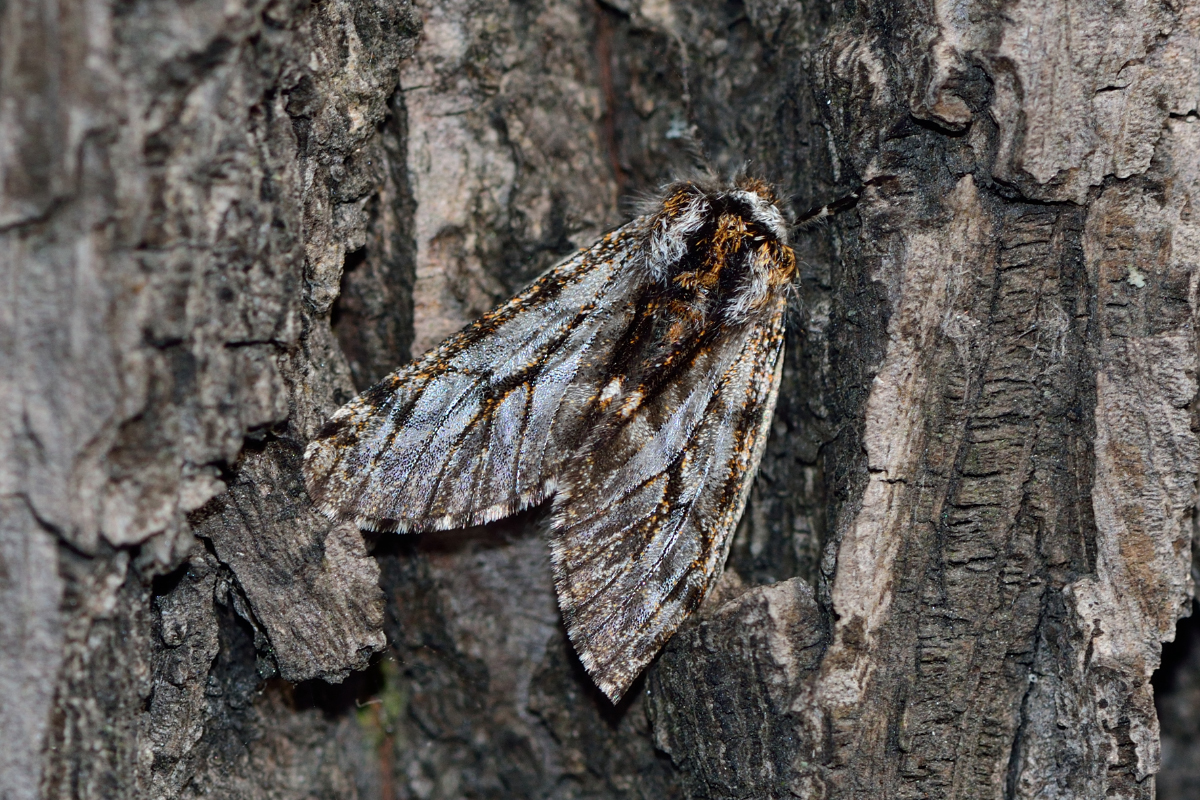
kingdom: Animalia
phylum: Arthropoda
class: Insecta
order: Lepidoptera
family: Geometridae
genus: Lycia
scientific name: Lycia pomonaria
